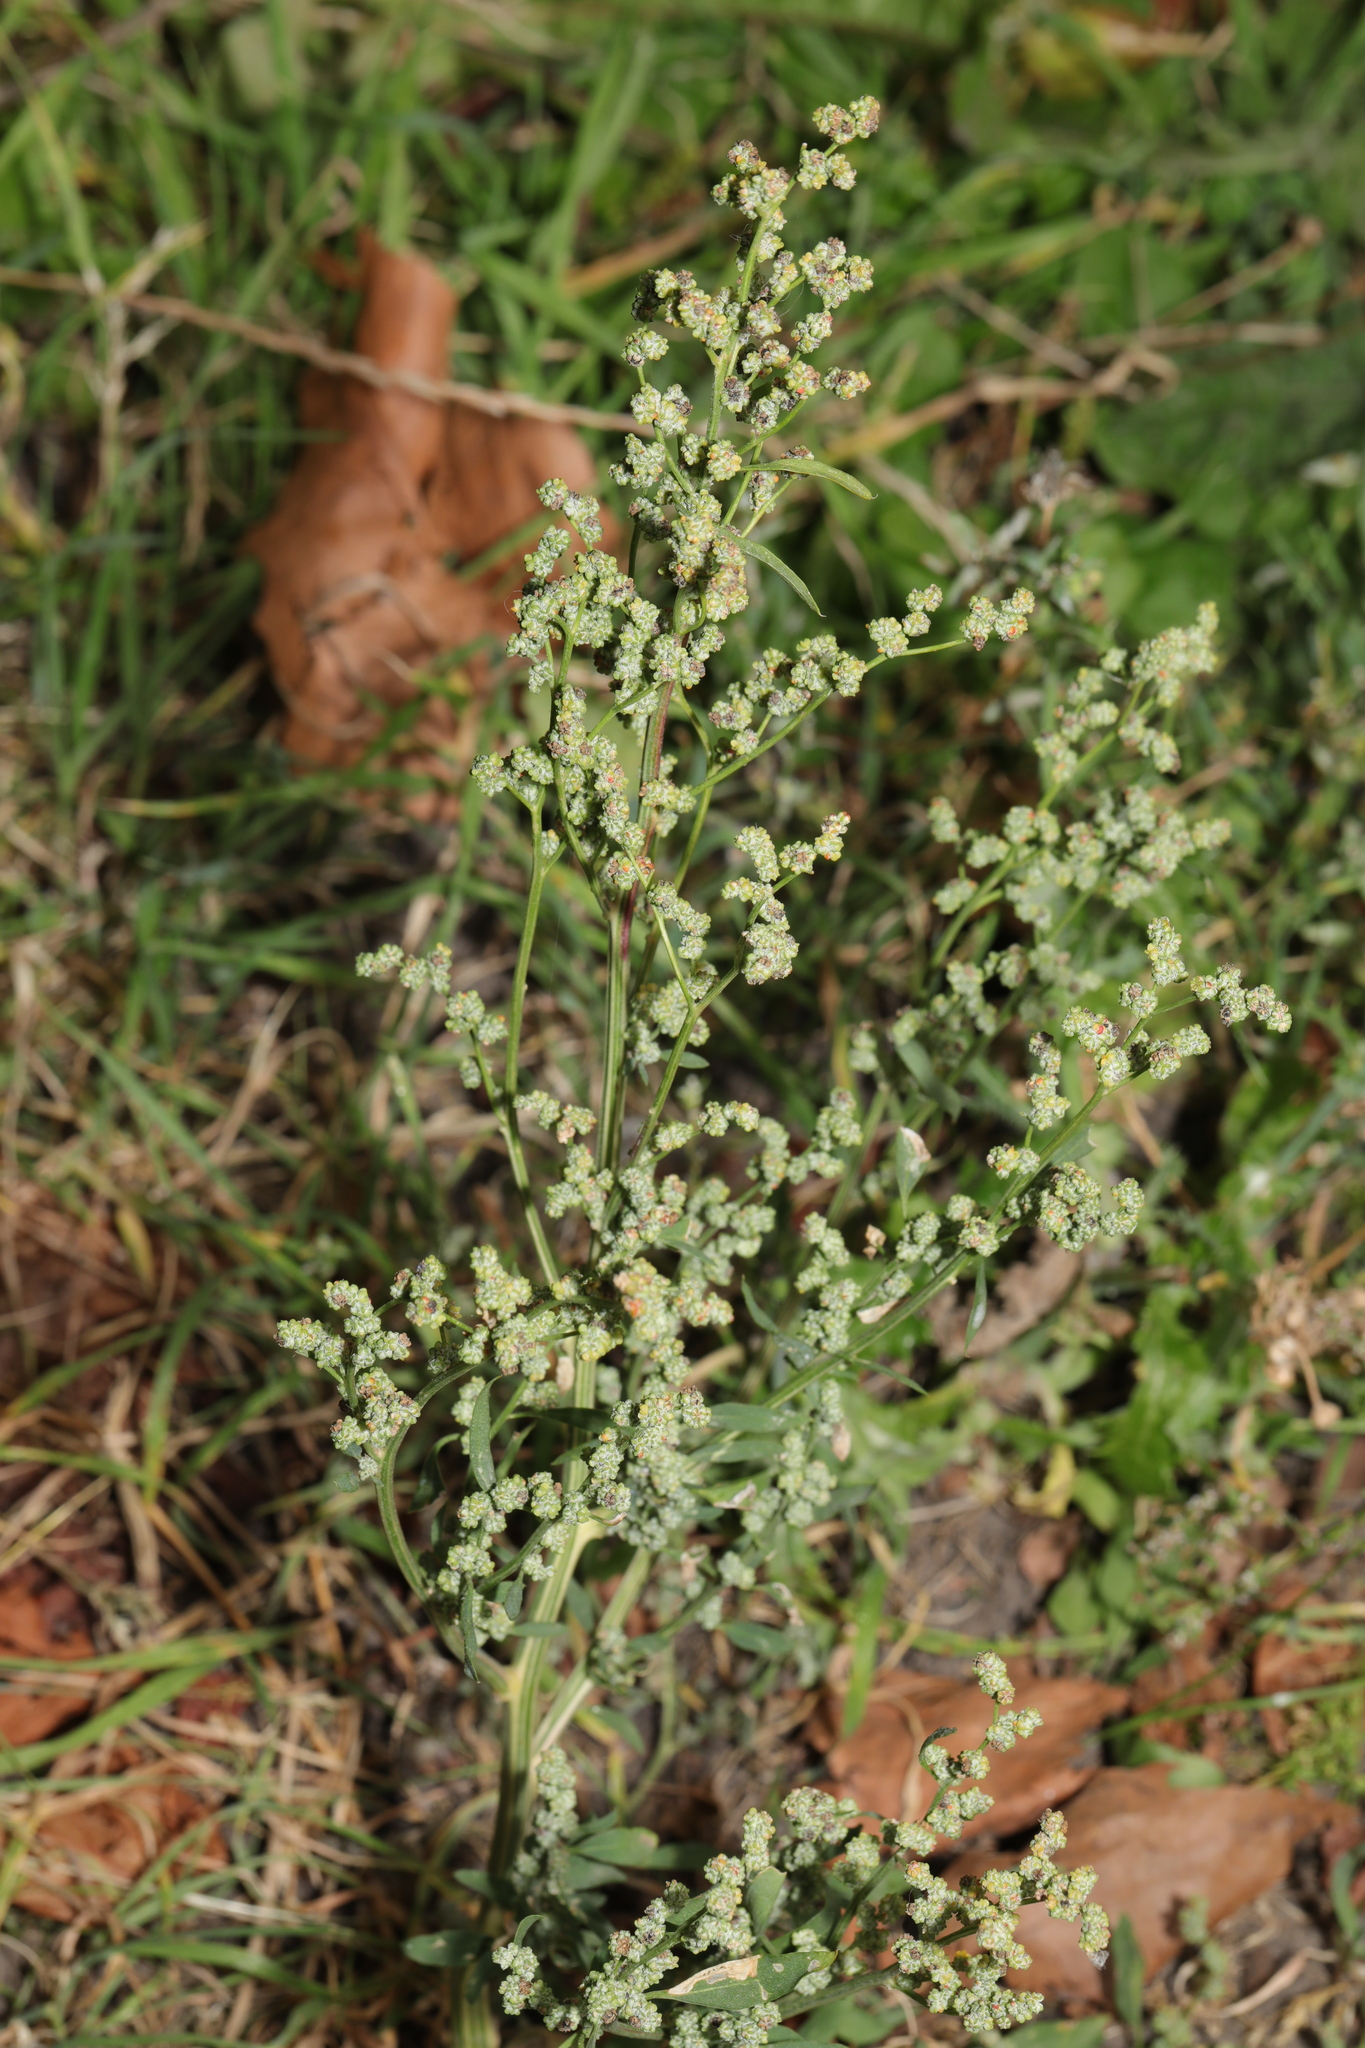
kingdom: Plantae
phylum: Tracheophyta
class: Magnoliopsida
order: Caryophyllales
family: Amaranthaceae
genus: Chenopodium
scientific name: Chenopodium album
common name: Fat-hen
